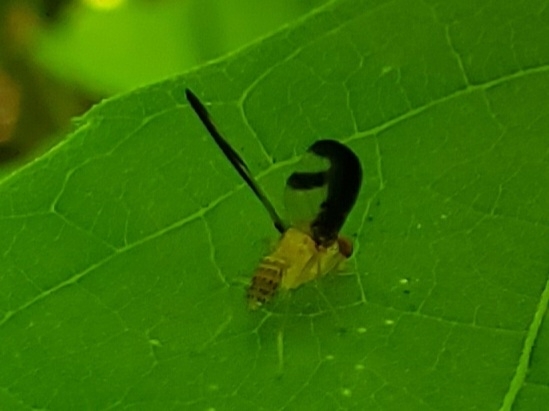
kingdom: Animalia
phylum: Arthropoda
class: Insecta
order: Diptera
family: Pallopteridae
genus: Toxonevra
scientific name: Toxonevra superba
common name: Antlered flutter fly
